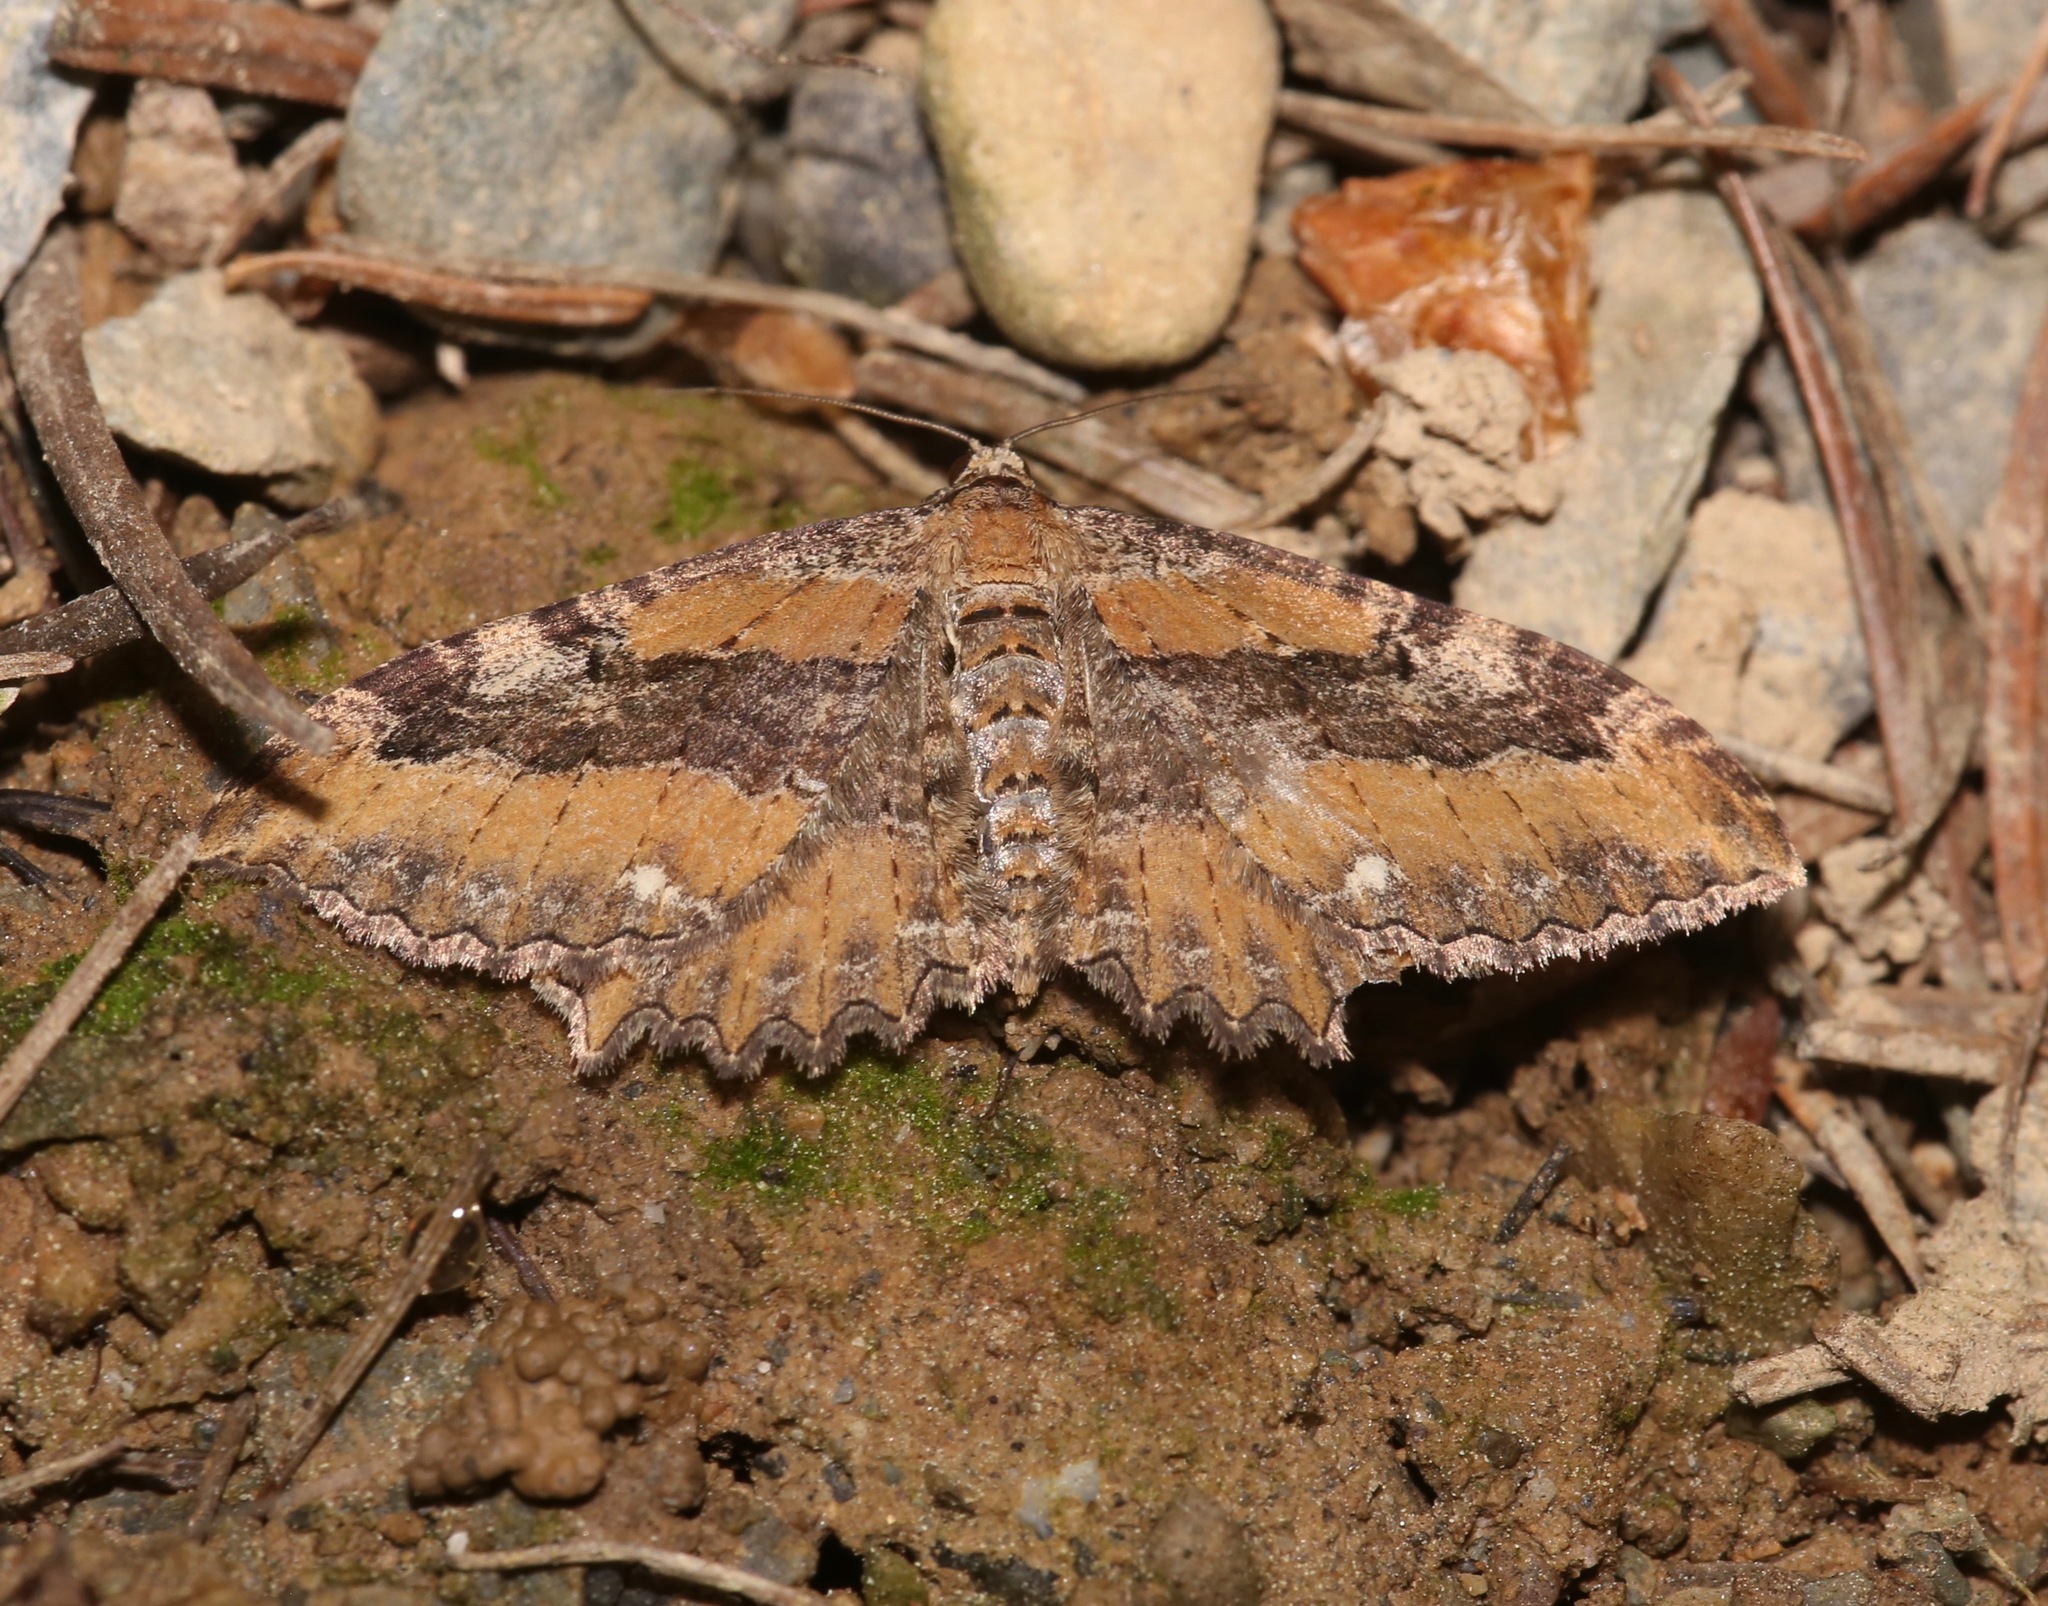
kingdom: Animalia
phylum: Arthropoda
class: Insecta
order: Lepidoptera
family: Geometridae
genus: Rheumaptera
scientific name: Rheumaptera
